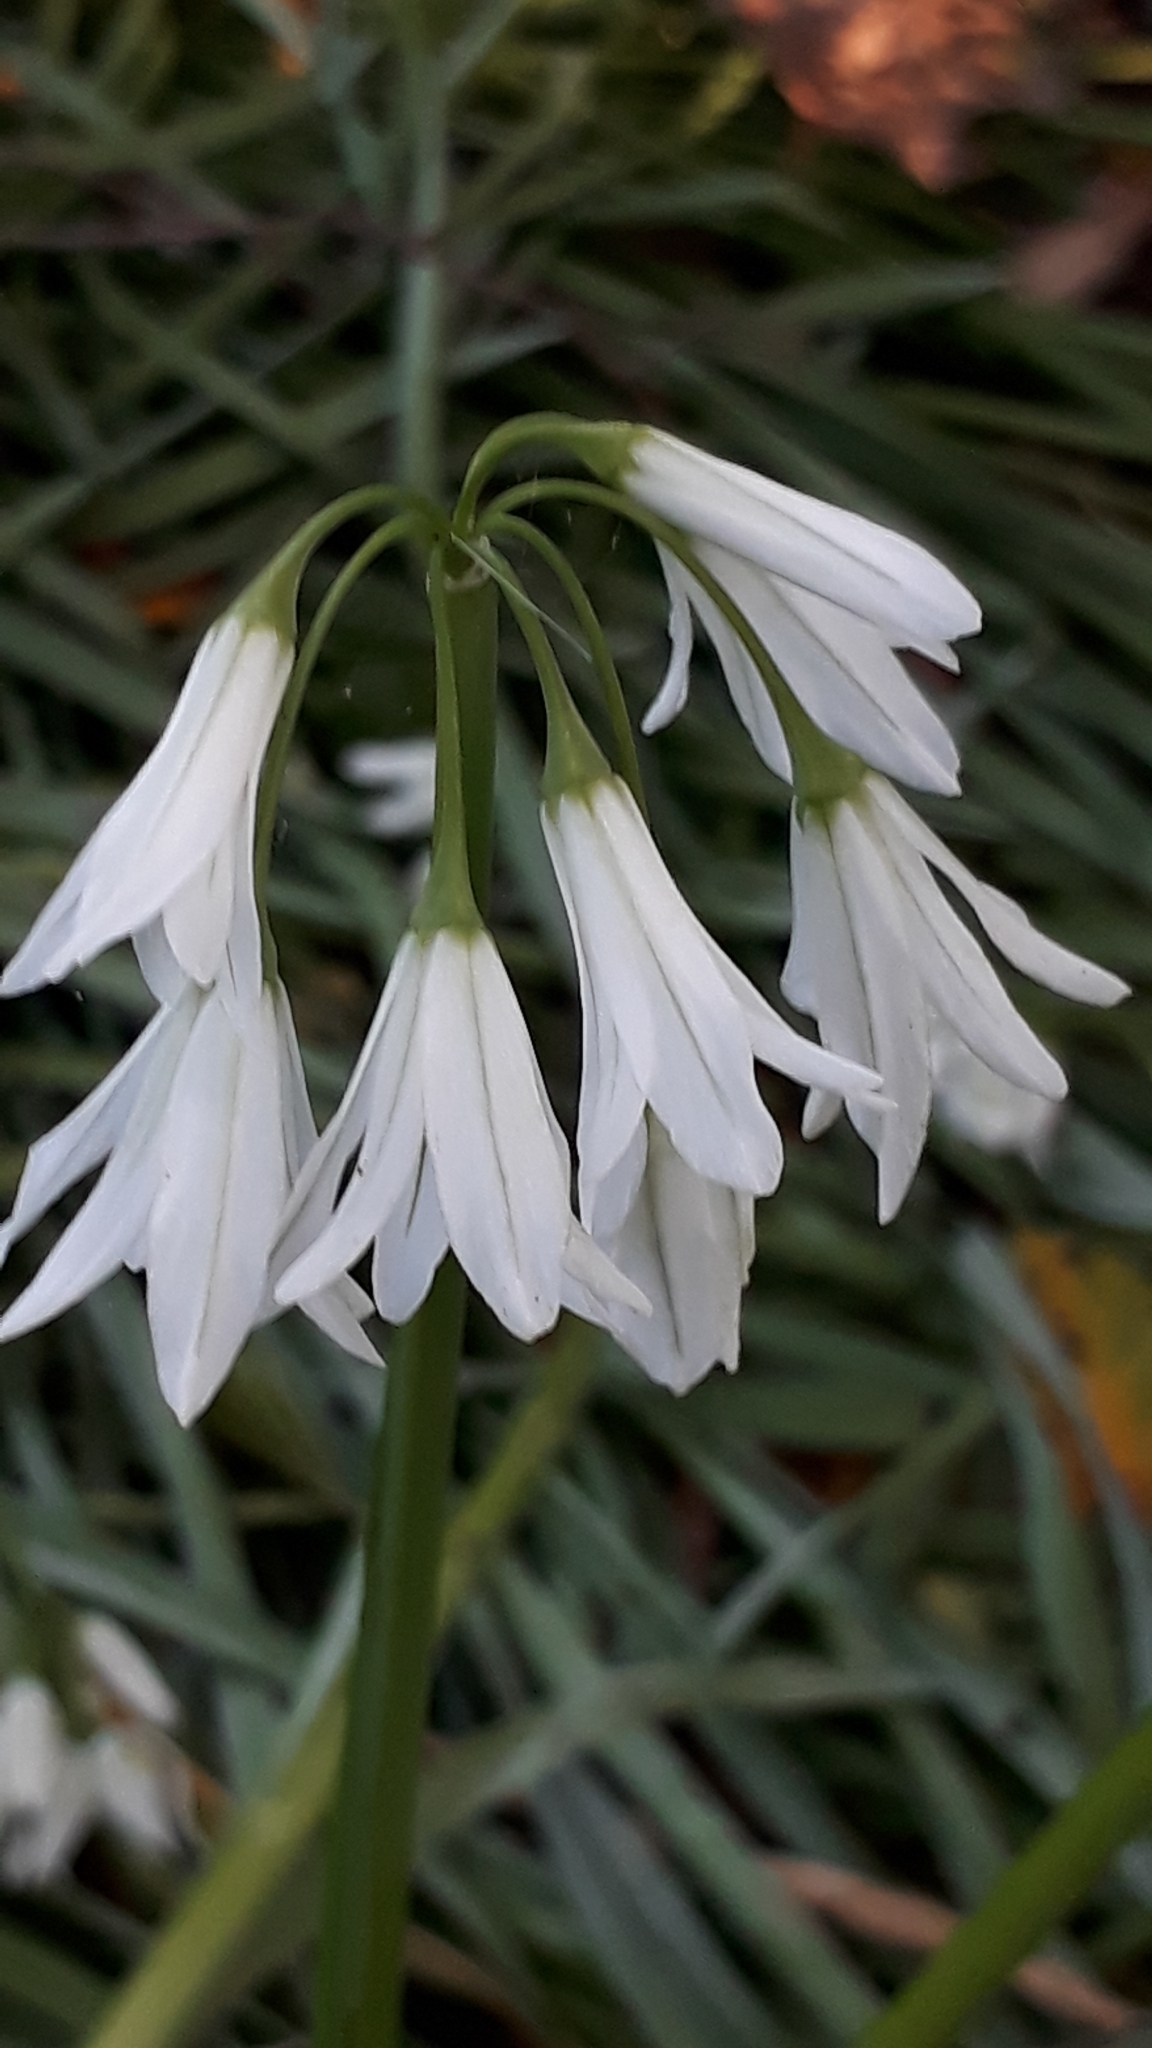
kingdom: Plantae
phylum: Tracheophyta
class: Liliopsida
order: Asparagales
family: Amaryllidaceae
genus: Allium
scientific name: Allium triquetrum
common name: Three-cornered garlic
